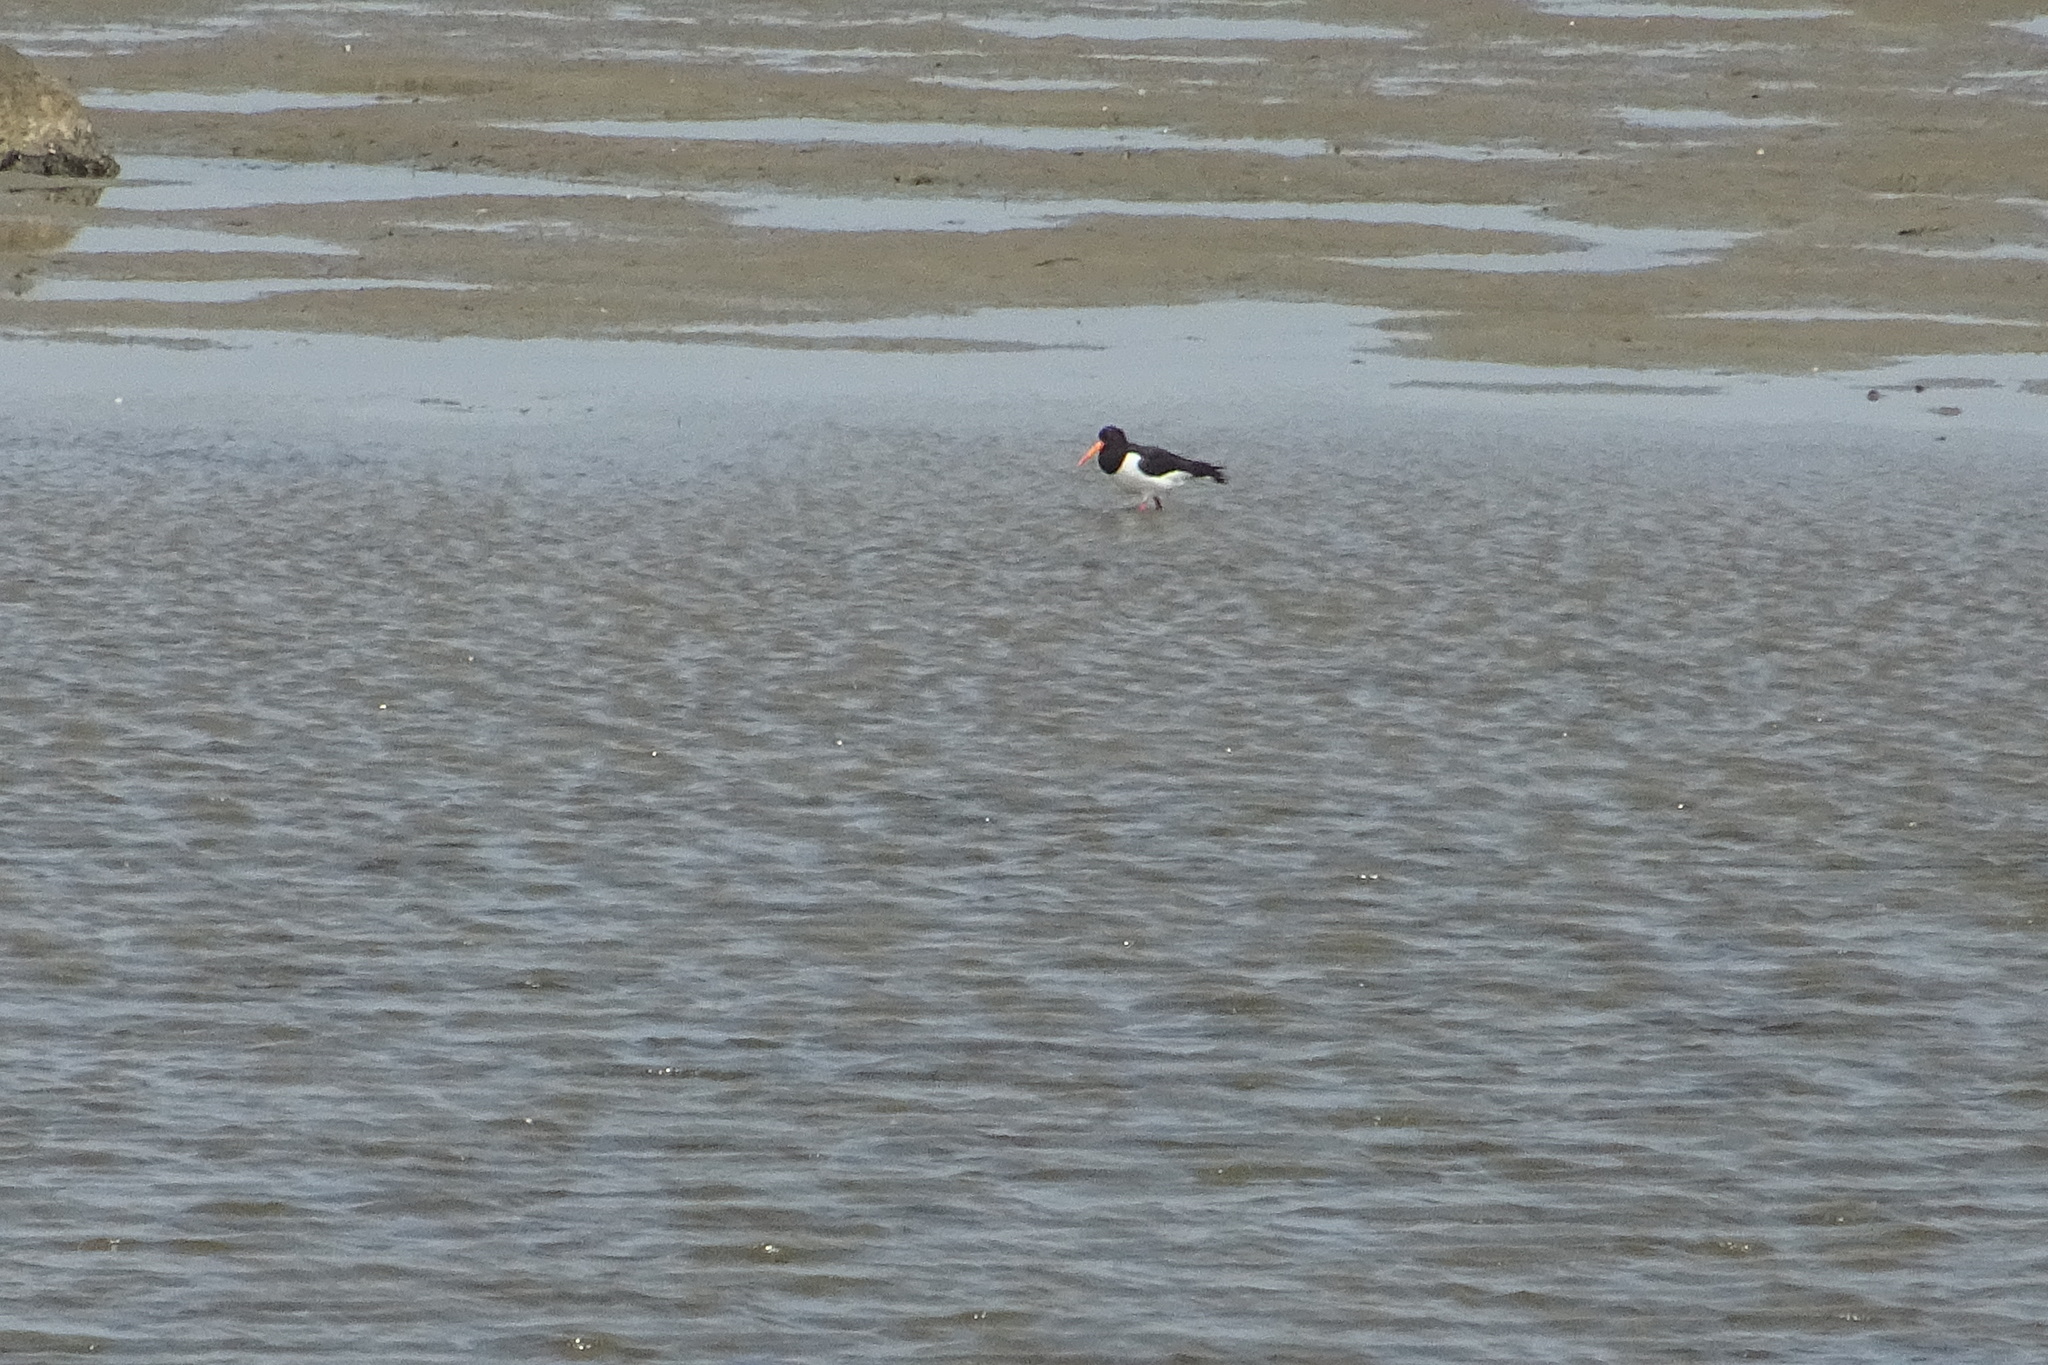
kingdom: Animalia
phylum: Chordata
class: Aves
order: Charadriiformes
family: Haematopodidae
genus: Haematopus
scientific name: Haematopus ostralegus
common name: Eurasian oystercatcher
